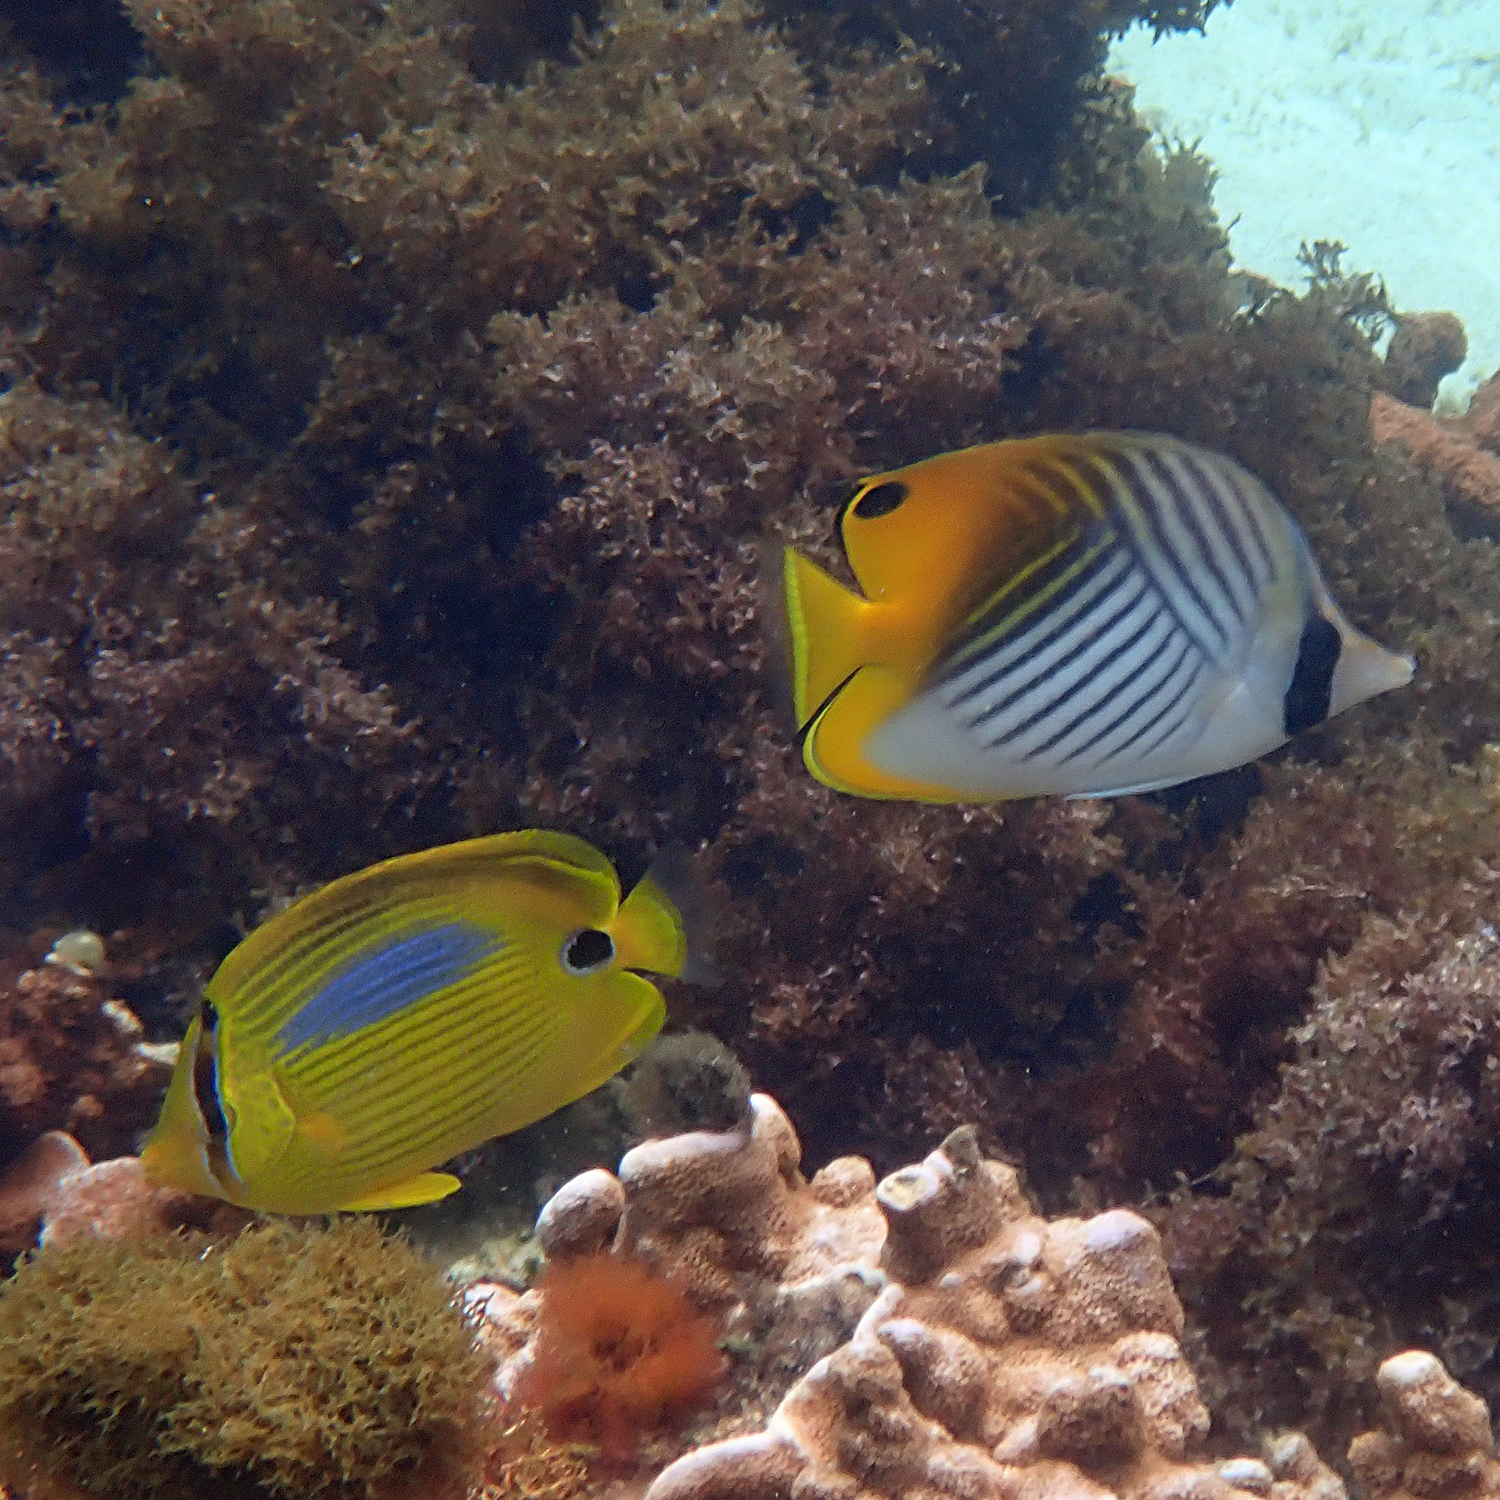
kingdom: Animalia
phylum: Chordata
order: Perciformes
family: Chaetodontidae
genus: Chaetodon
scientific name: Chaetodon plebeius
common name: Bluespot butterflyfish
